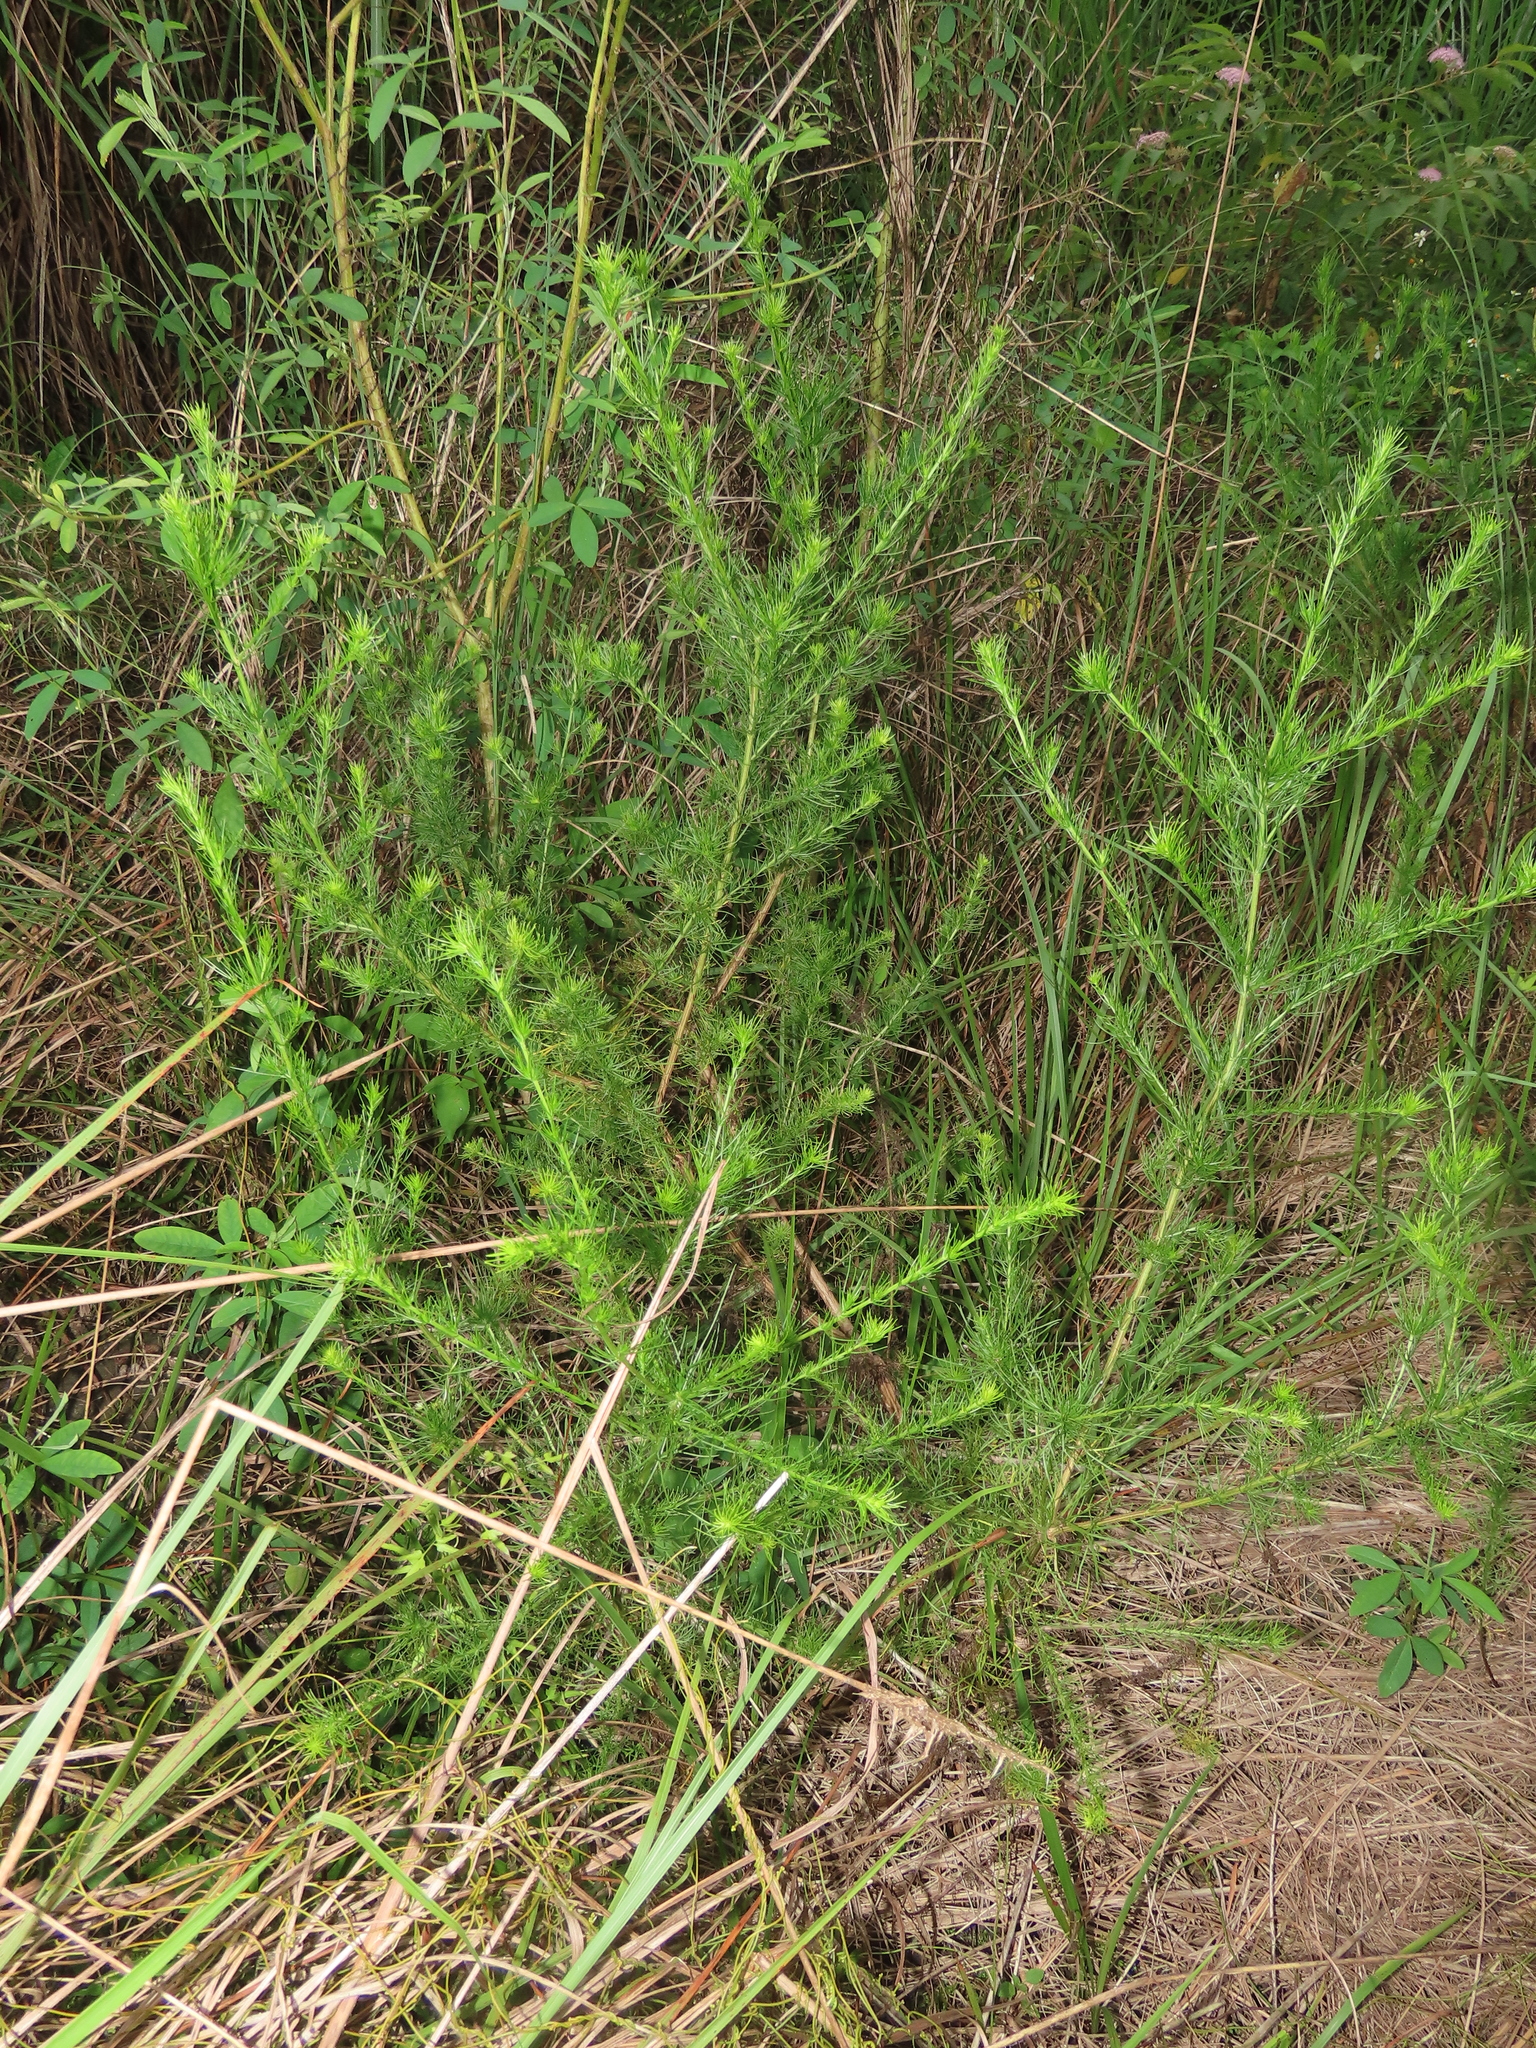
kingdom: Plantae
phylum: Tracheophyta
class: Magnoliopsida
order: Asterales
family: Asteraceae
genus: Artemisia
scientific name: Artemisia capillaris
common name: Yin-chen wormwood
